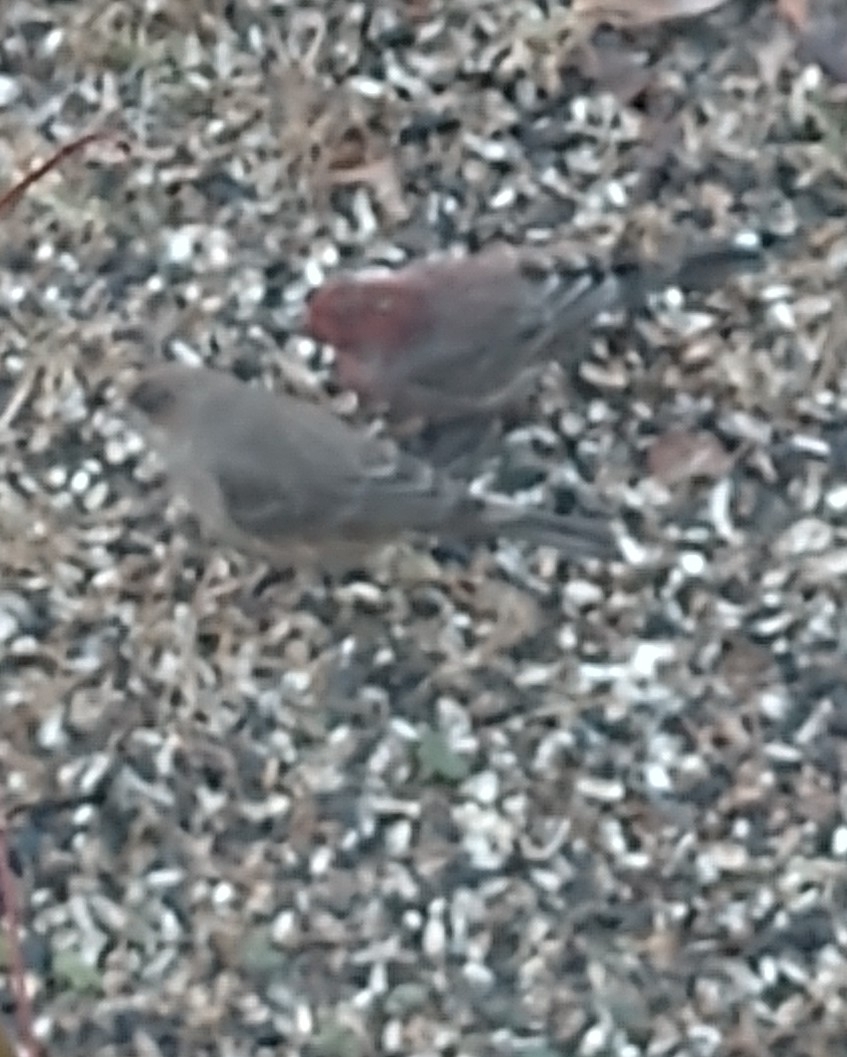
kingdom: Animalia
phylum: Chordata
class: Aves
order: Passeriformes
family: Fringillidae
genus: Haemorhous
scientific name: Haemorhous mexicanus
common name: House finch
